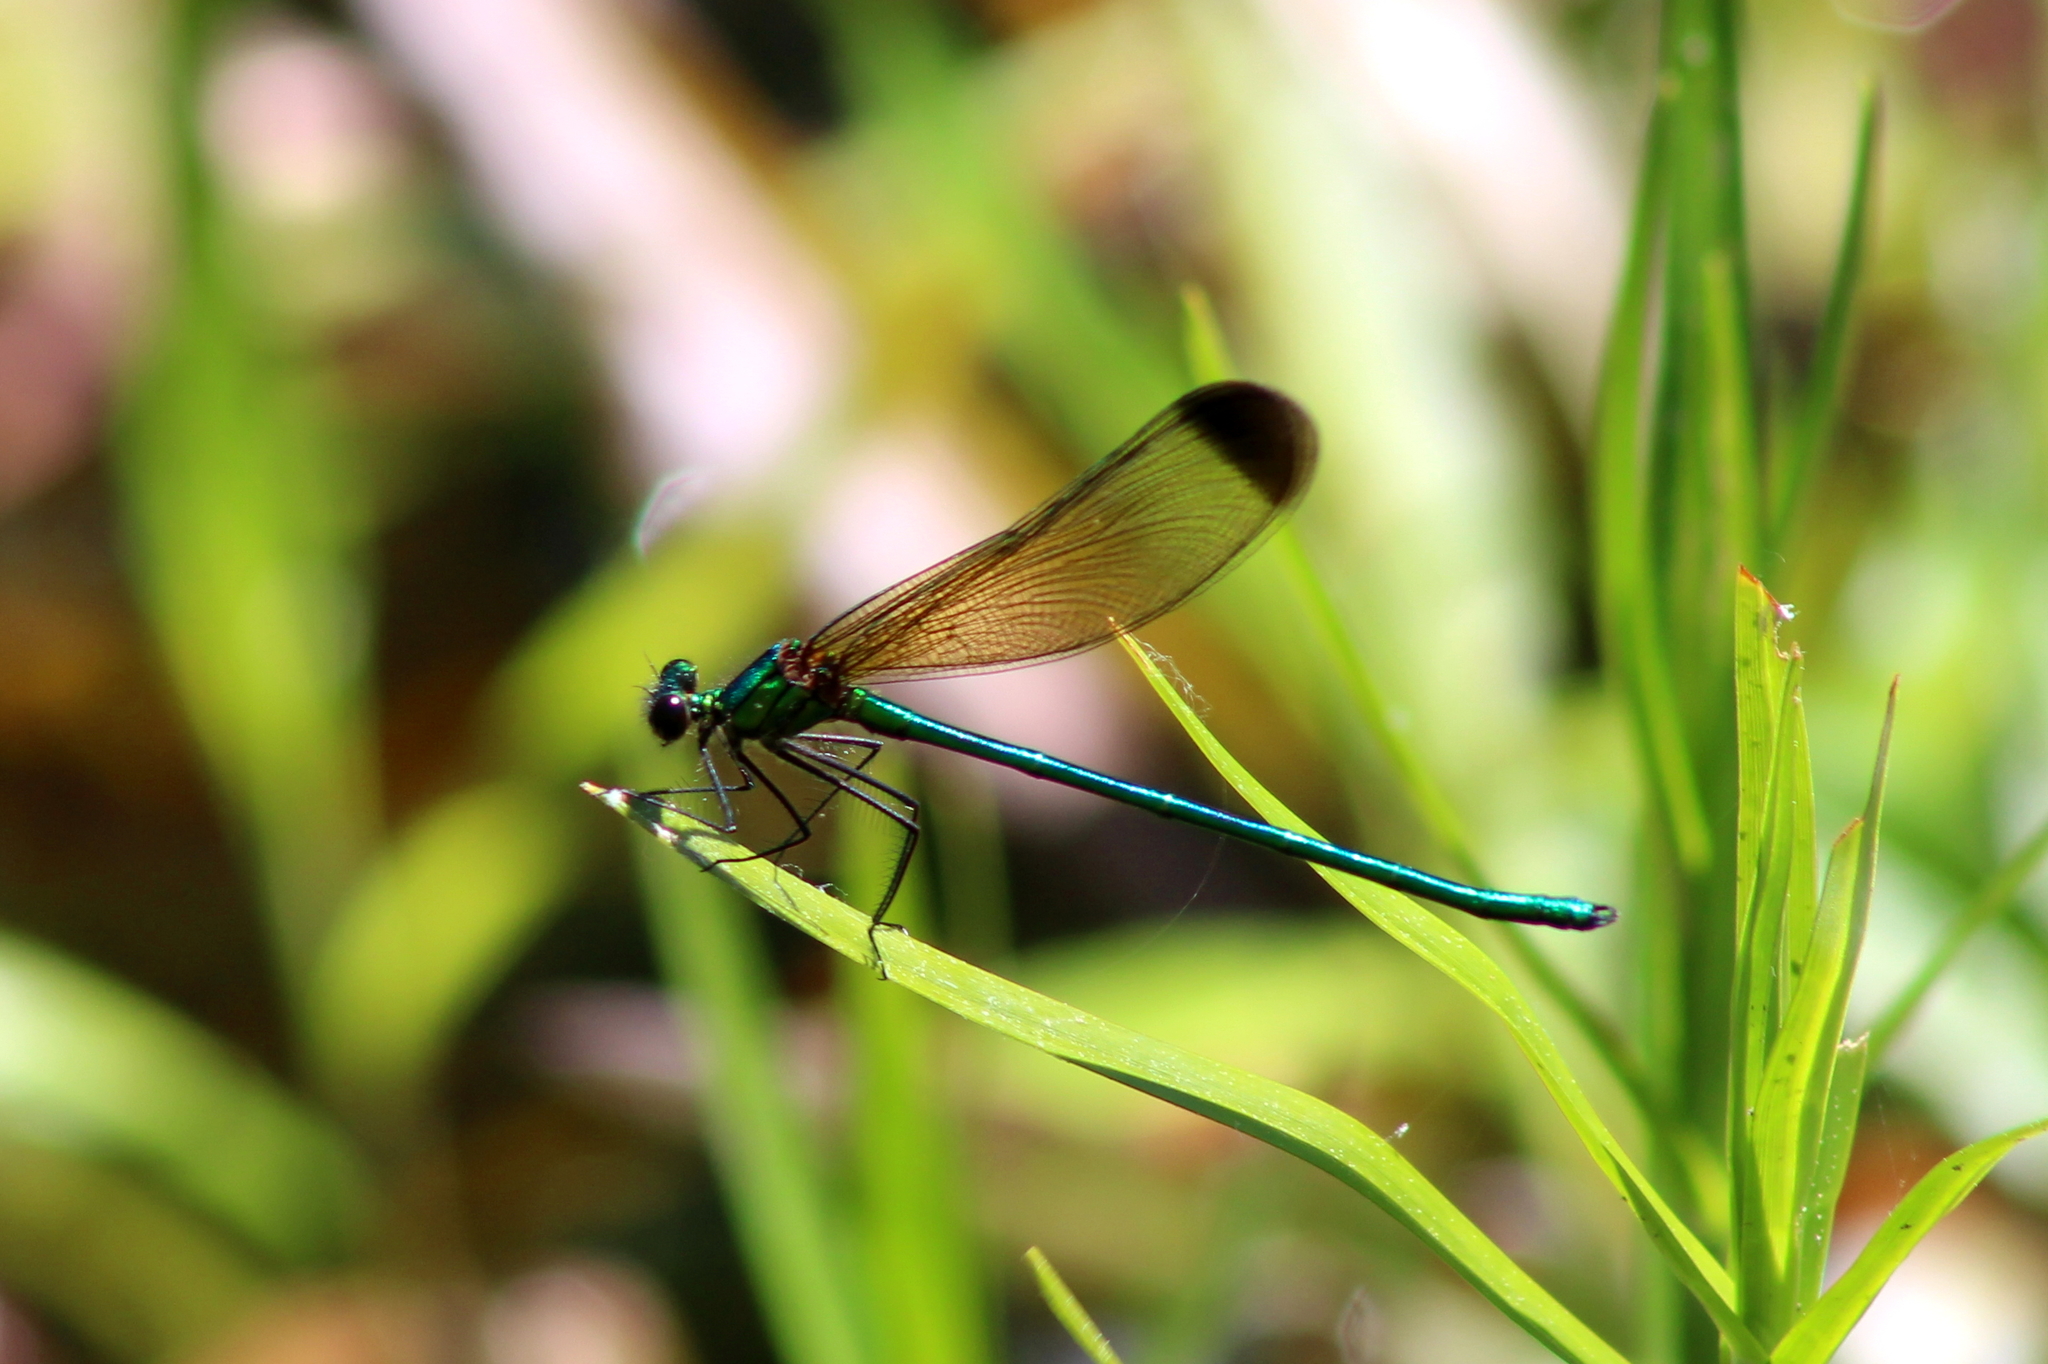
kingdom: Animalia
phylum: Arthropoda
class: Insecta
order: Odonata
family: Calopterygidae
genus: Calopteryx
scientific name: Calopteryx dimidiata
